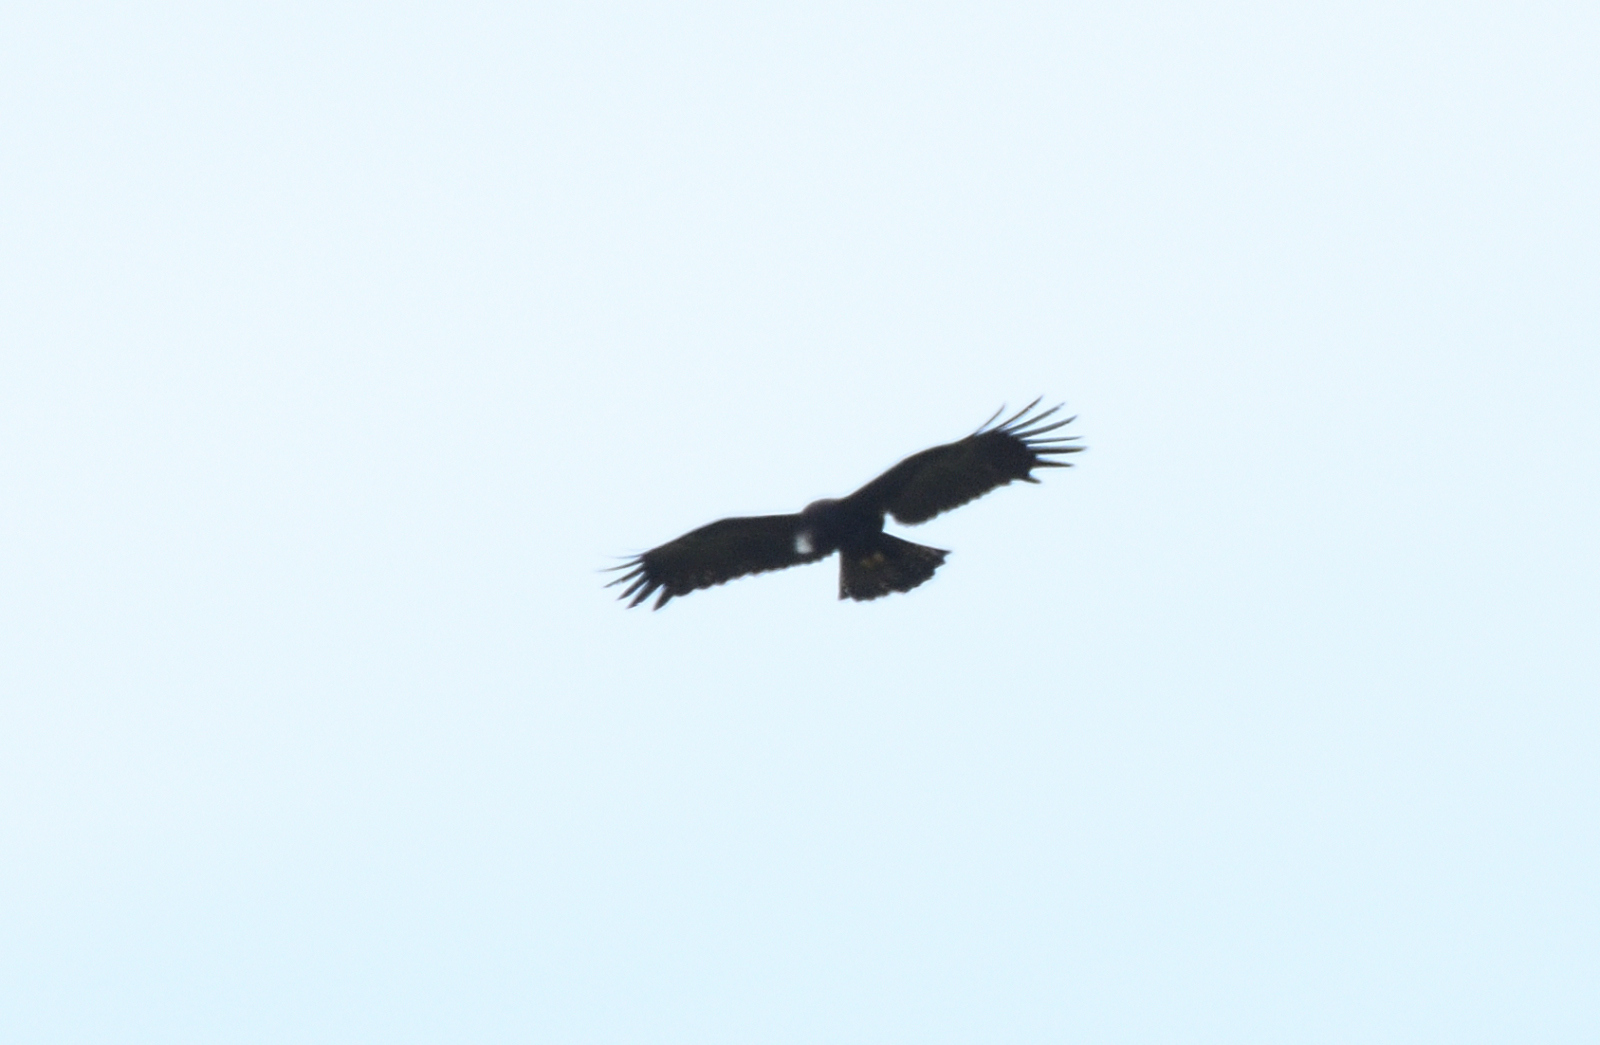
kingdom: Animalia
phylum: Chordata
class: Aves
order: Accipitriformes
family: Accipitridae
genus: Ictinaetus
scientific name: Ictinaetus malayensis
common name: Black eagle
